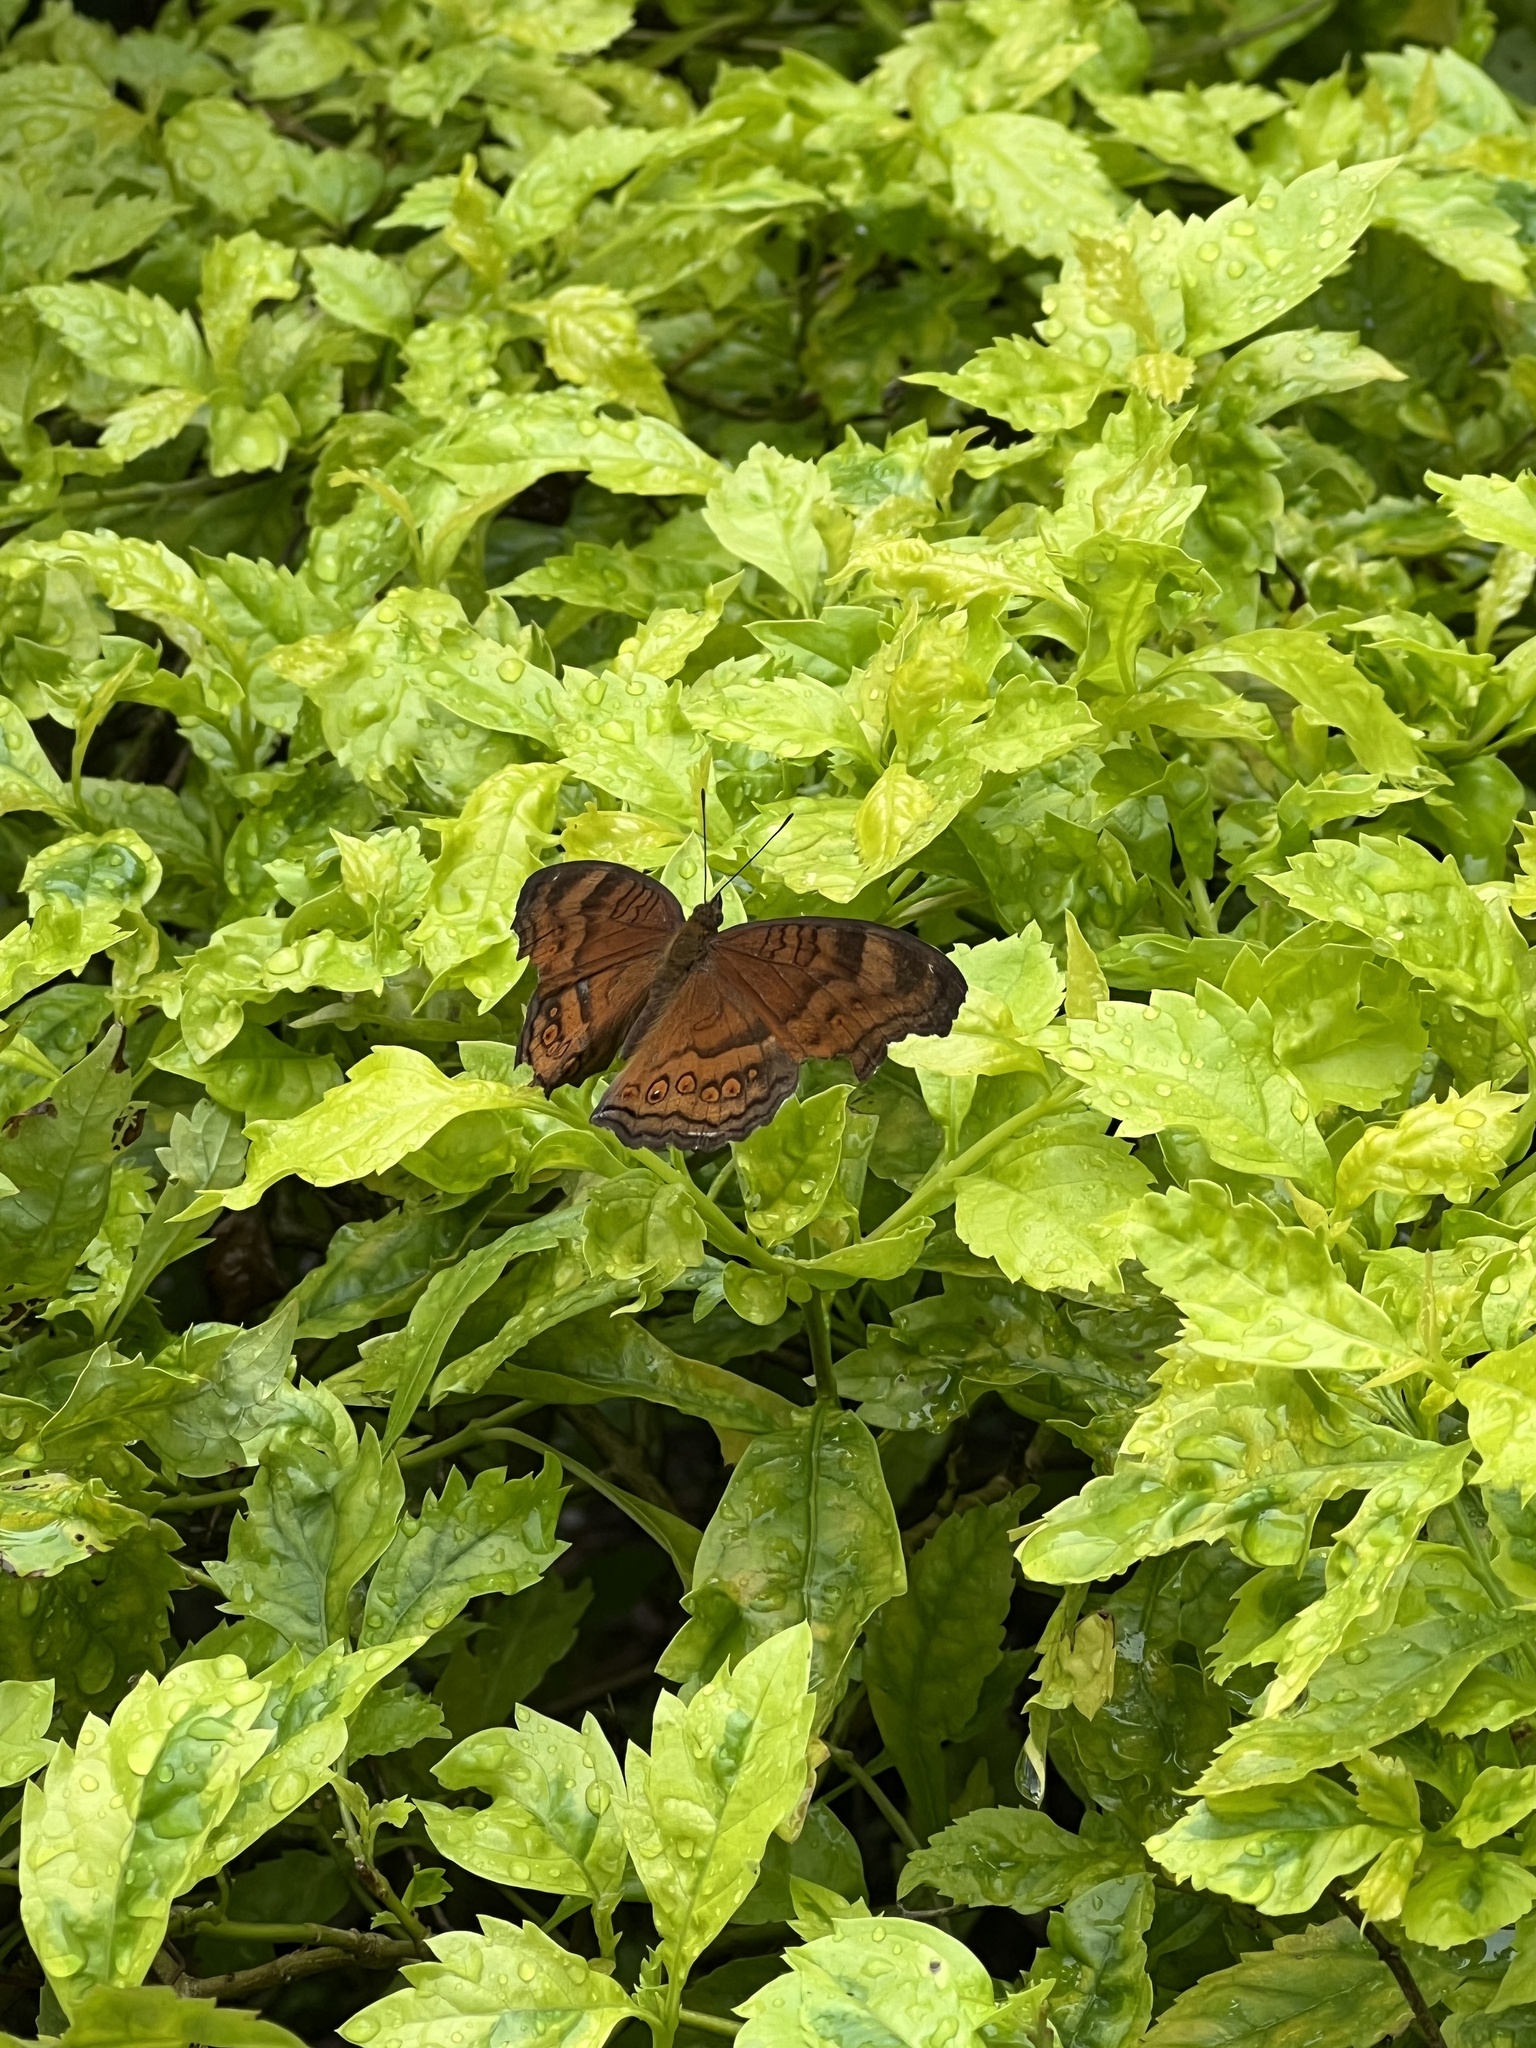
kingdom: Animalia
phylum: Arthropoda
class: Insecta
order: Lepidoptera
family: Nymphalidae
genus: Junonia
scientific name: Junonia hedonia
